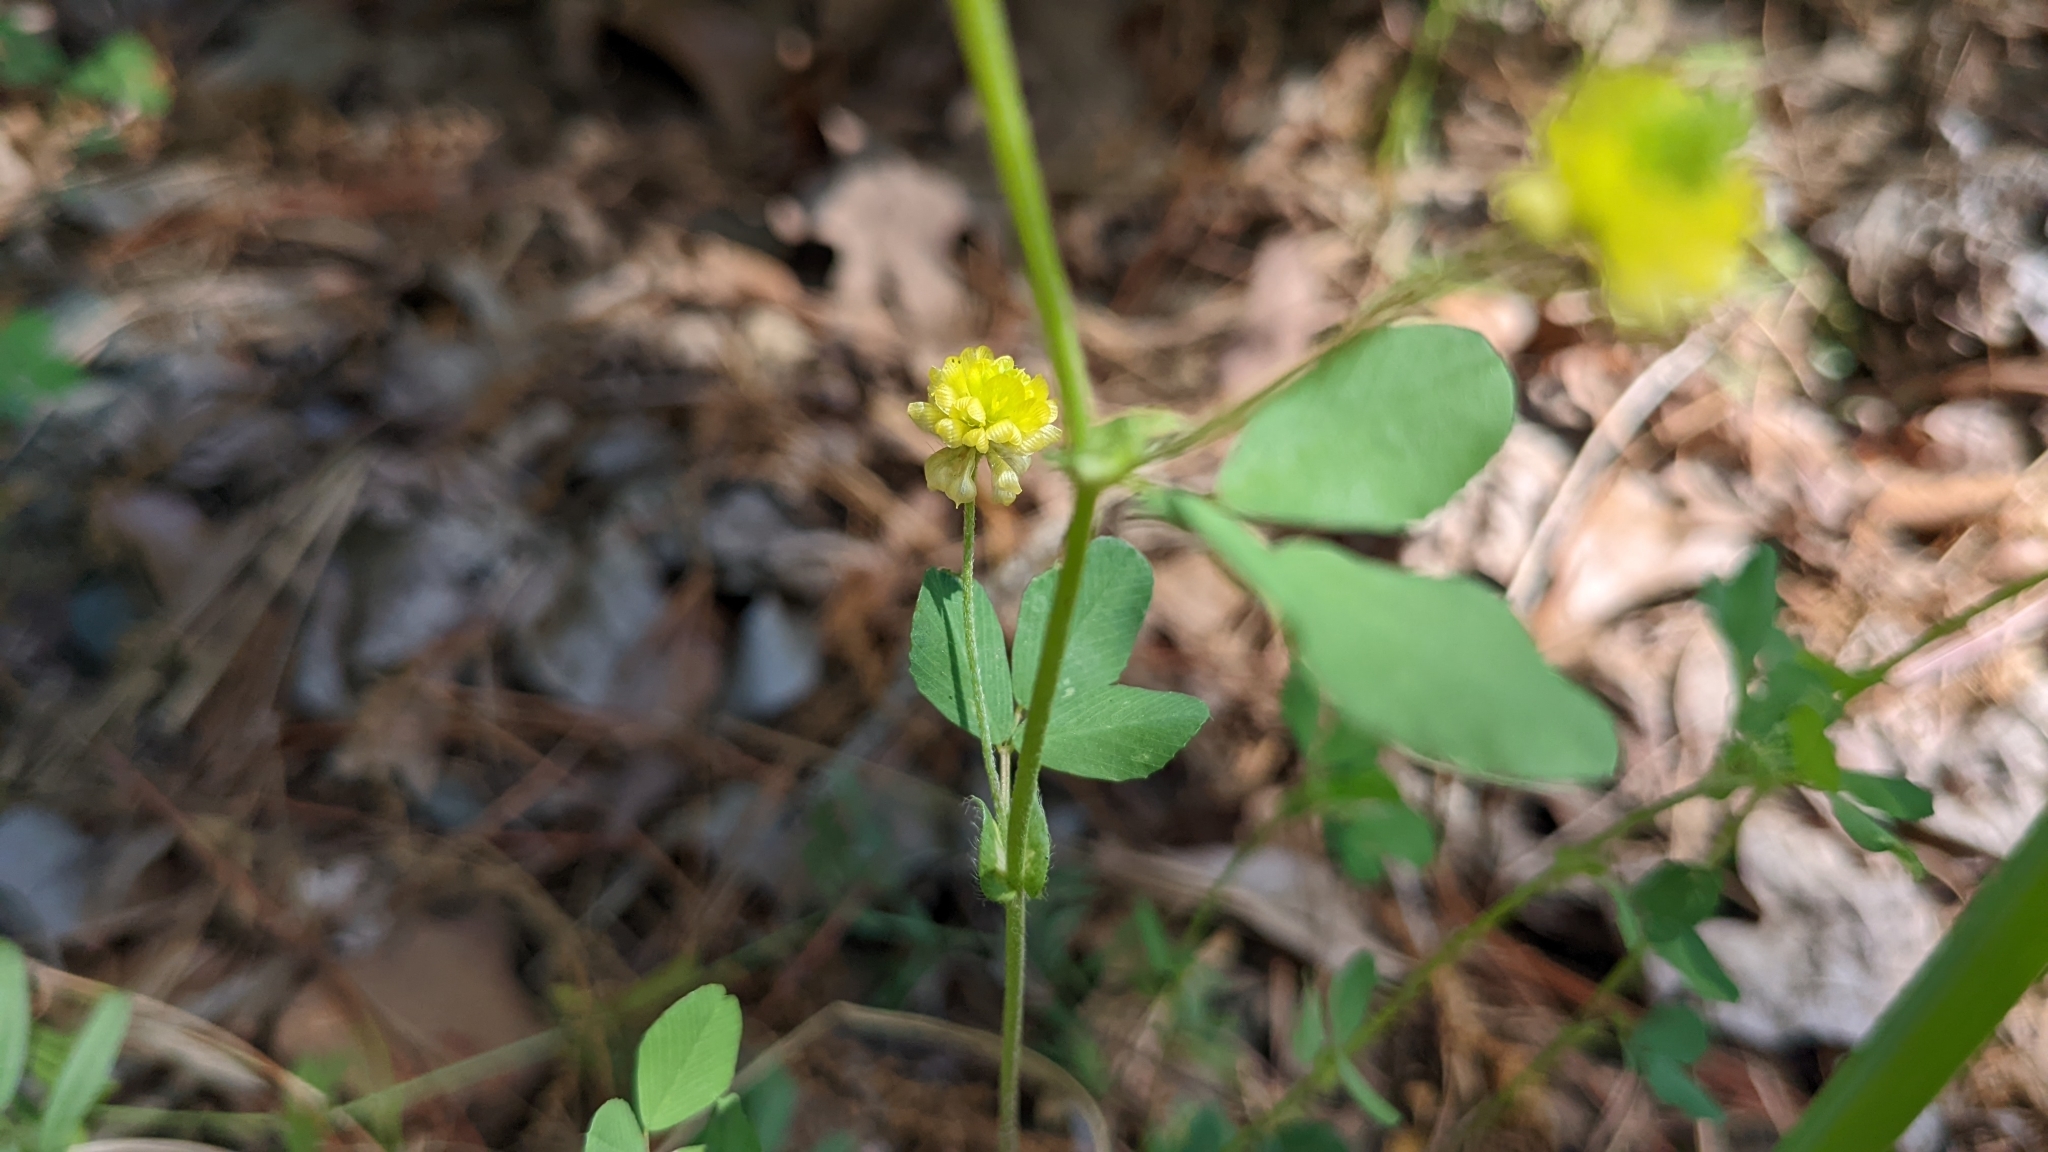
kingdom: Plantae
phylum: Tracheophyta
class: Magnoliopsida
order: Fabales
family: Fabaceae
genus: Trifolium
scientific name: Trifolium campestre
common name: Field clover
